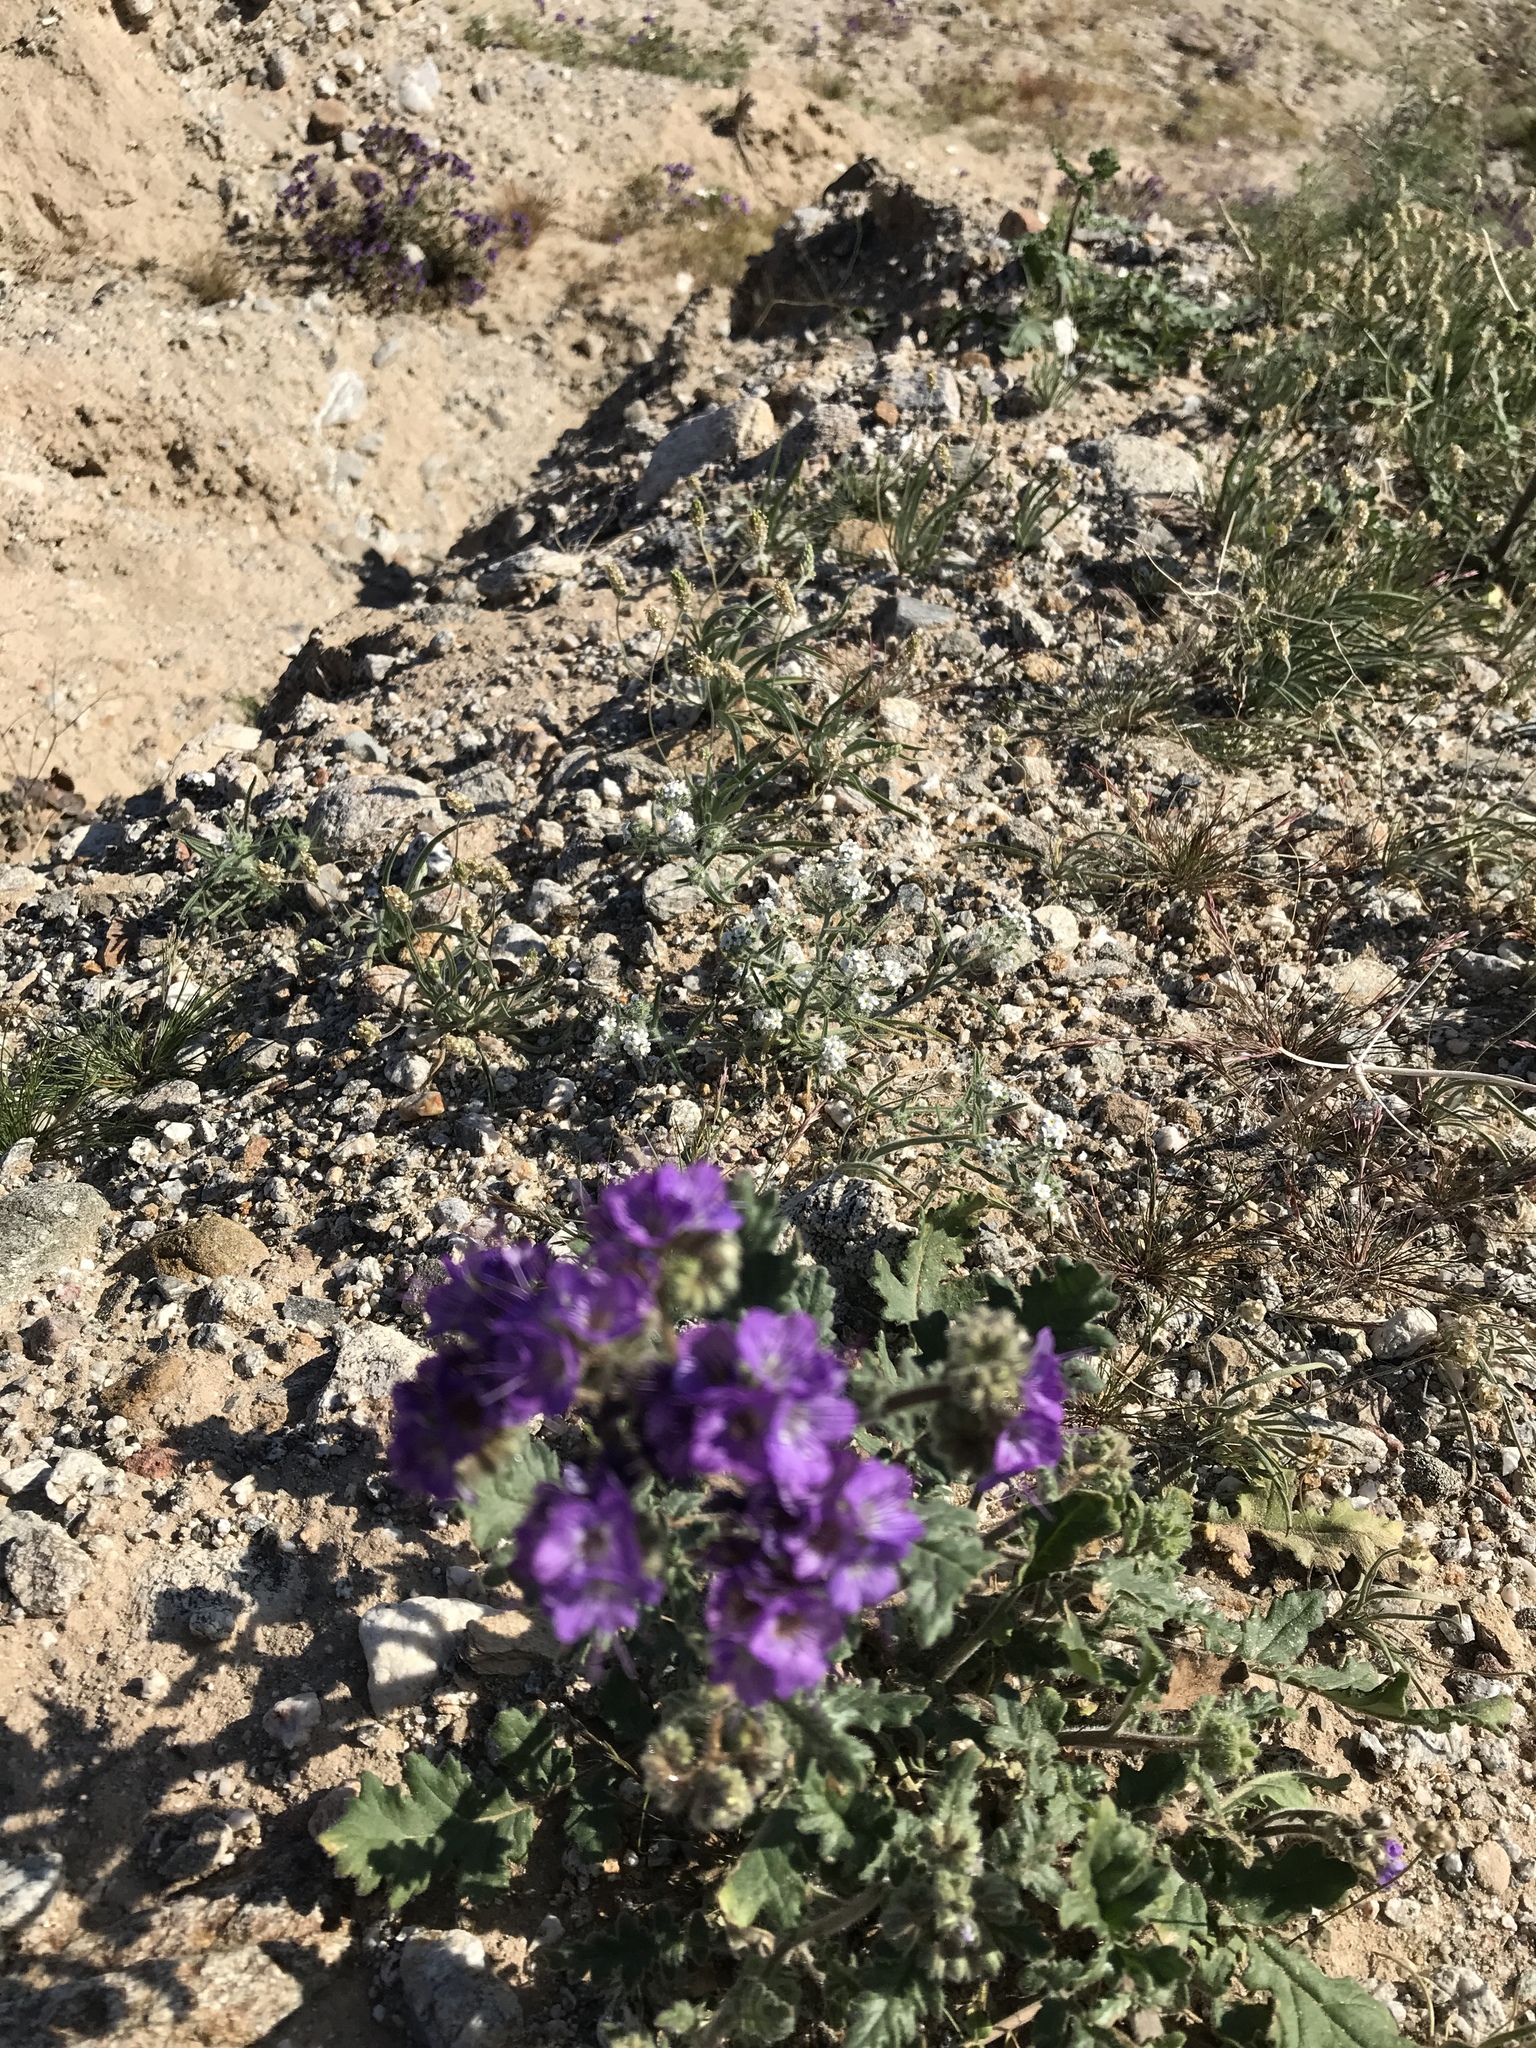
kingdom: Plantae
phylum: Tracheophyta
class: Magnoliopsida
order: Boraginales
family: Hydrophyllaceae
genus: Phacelia
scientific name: Phacelia crenulata
